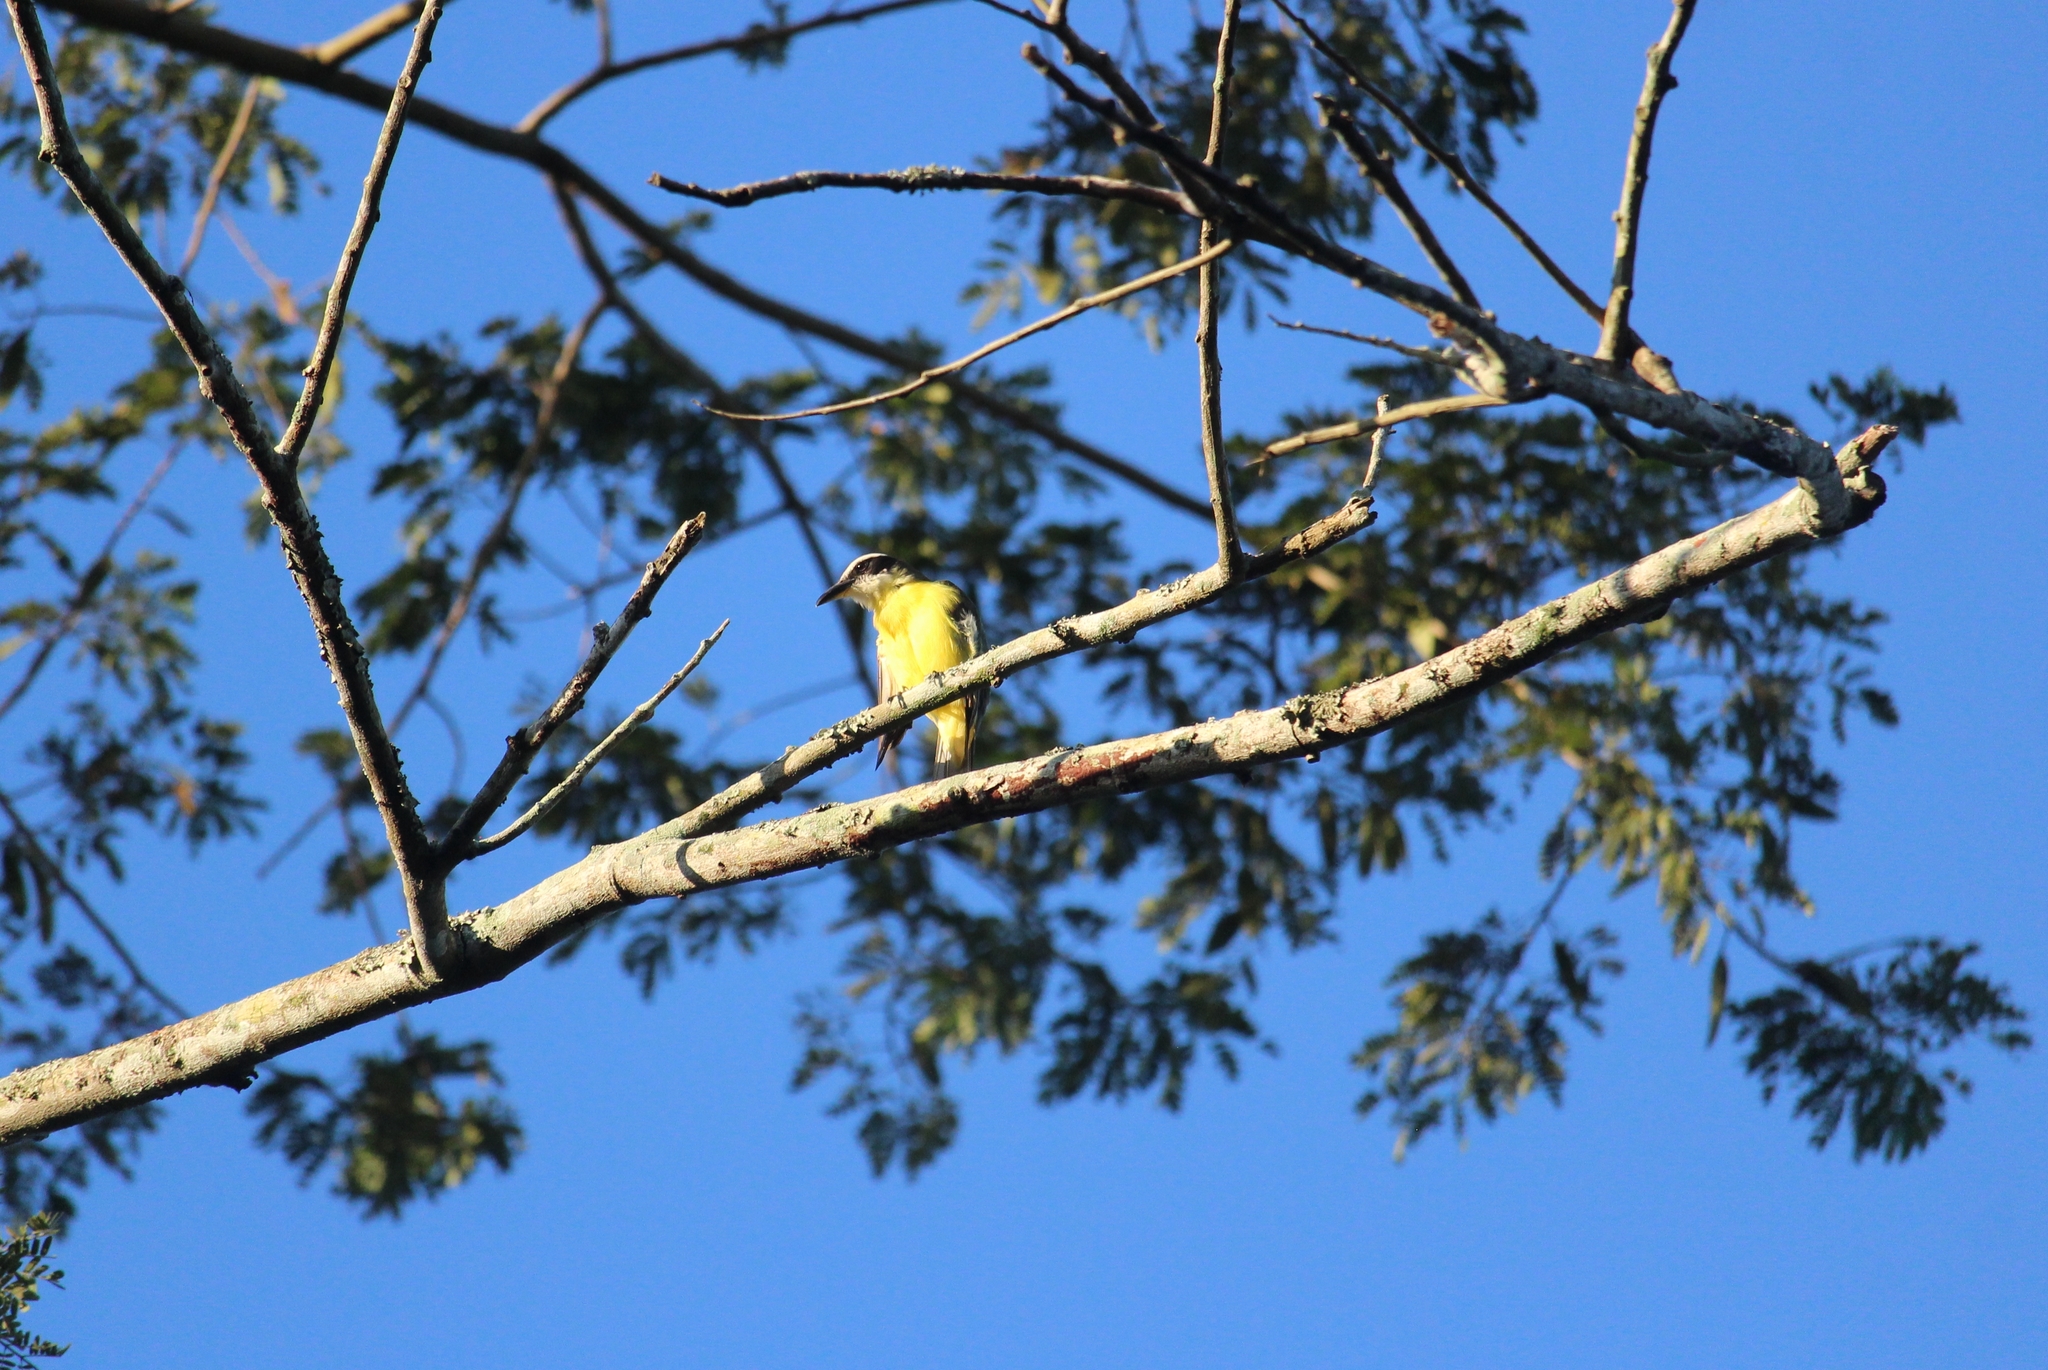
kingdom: Animalia
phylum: Chordata
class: Aves
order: Passeriformes
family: Tyrannidae
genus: Megarynchus
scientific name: Megarynchus pitangua
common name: Boat-billed flycatcher
